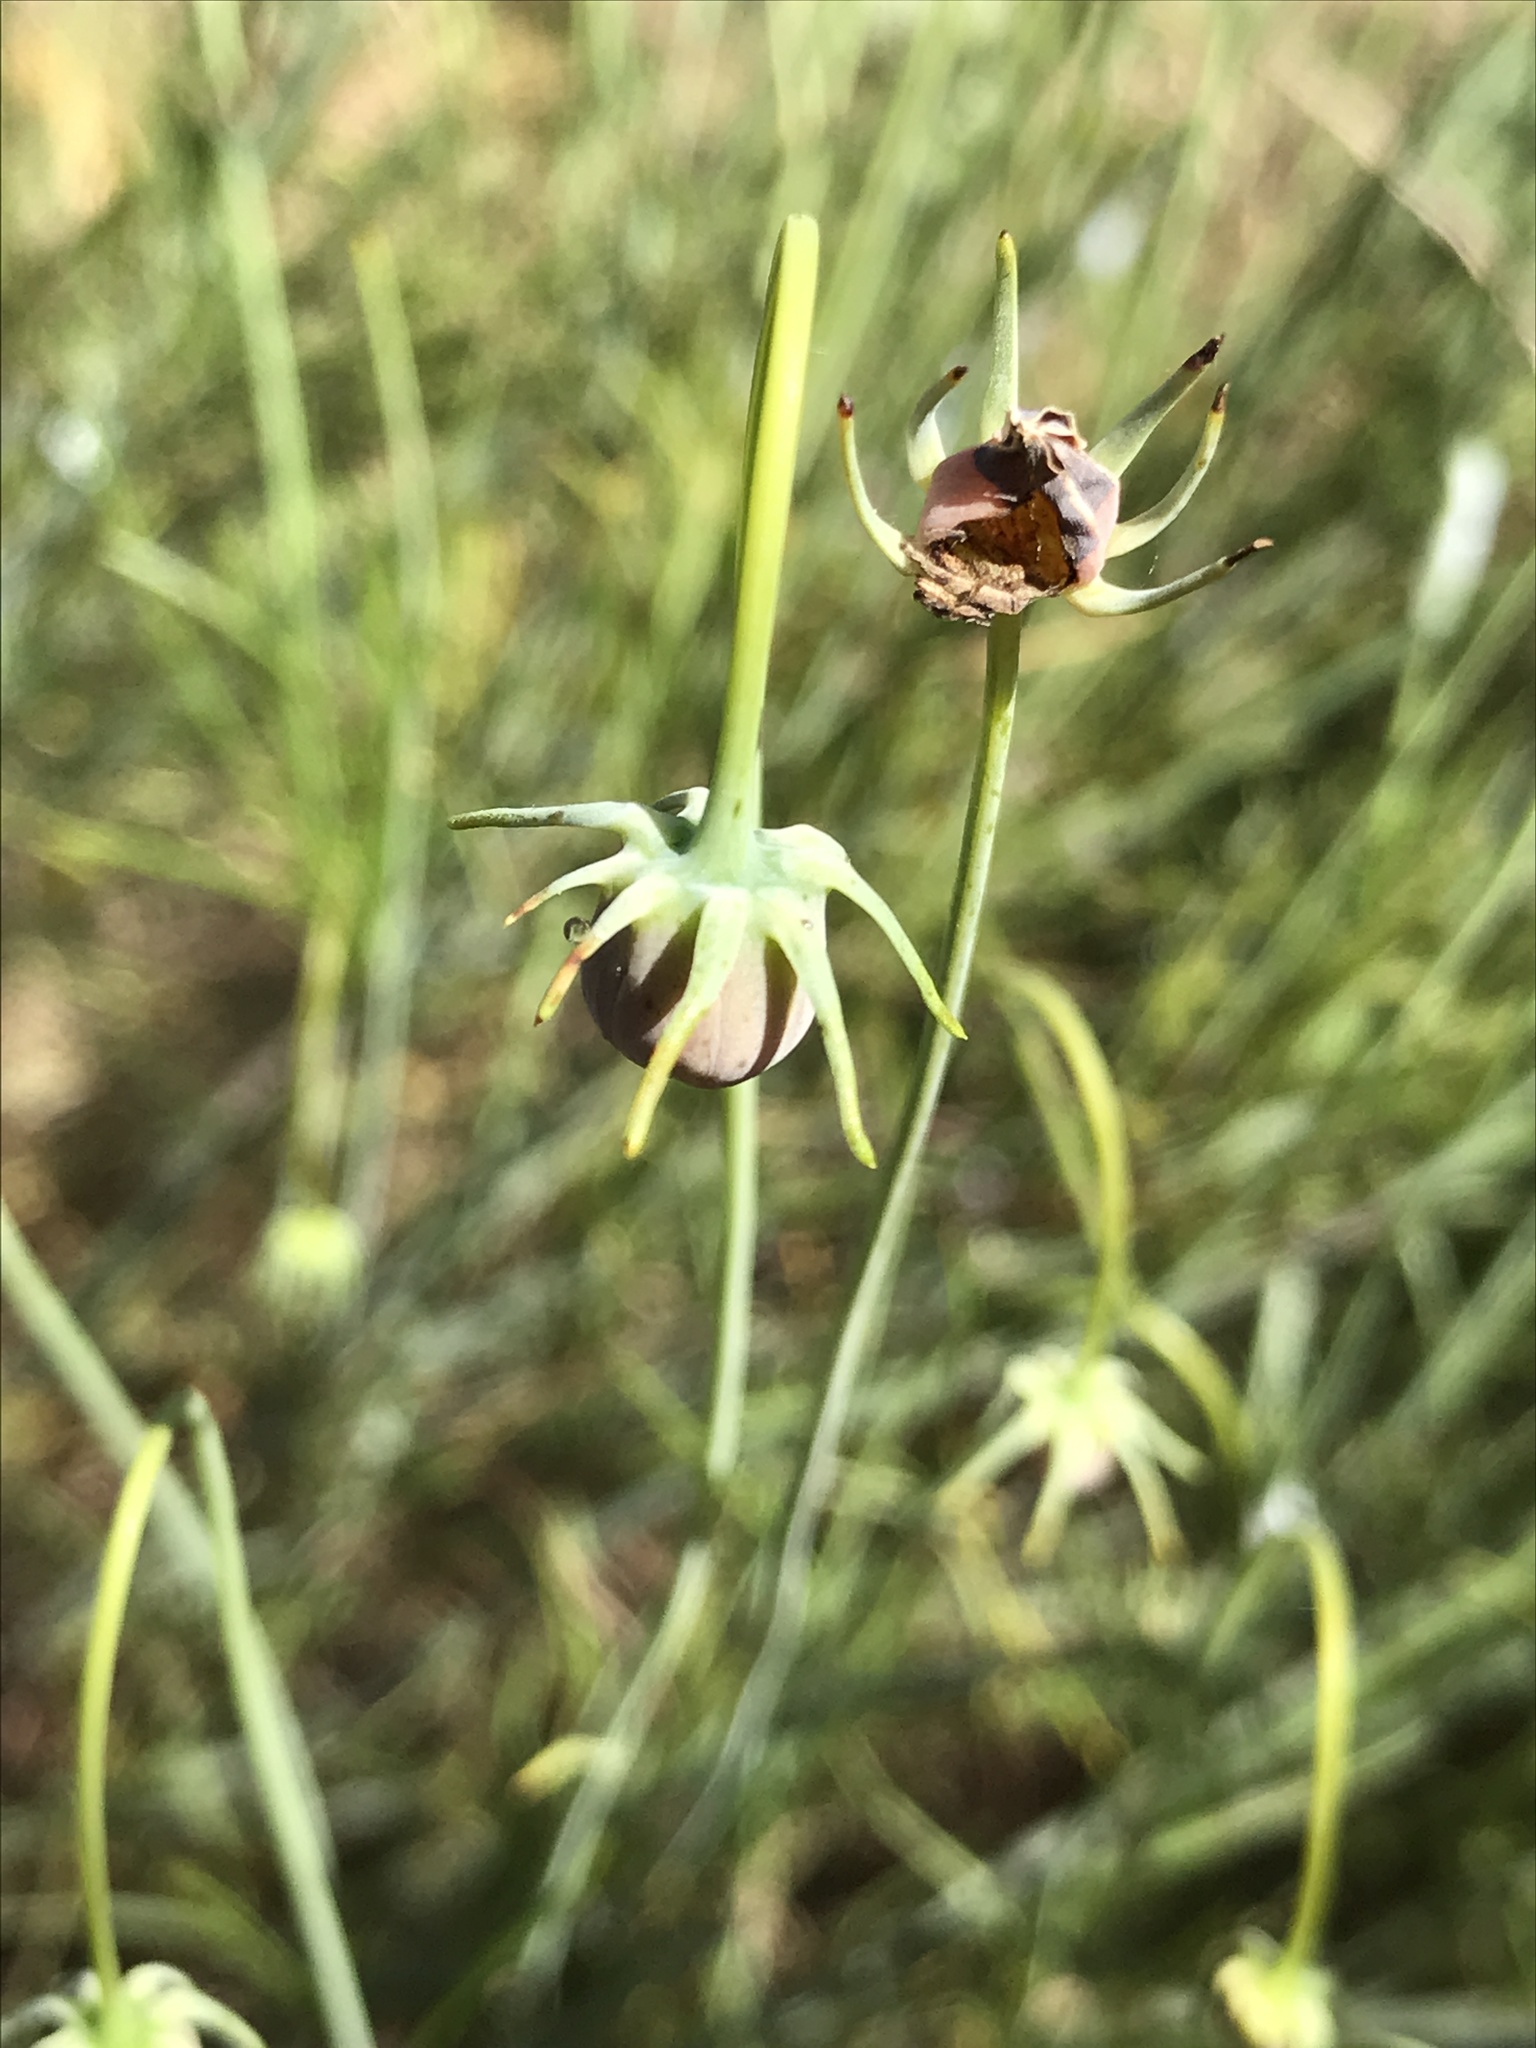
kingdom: Plantae
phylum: Tracheophyta
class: Magnoliopsida
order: Asterales
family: Asteraceae
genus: Thelesperma
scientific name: Thelesperma filifolium
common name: Stiff greenthread
